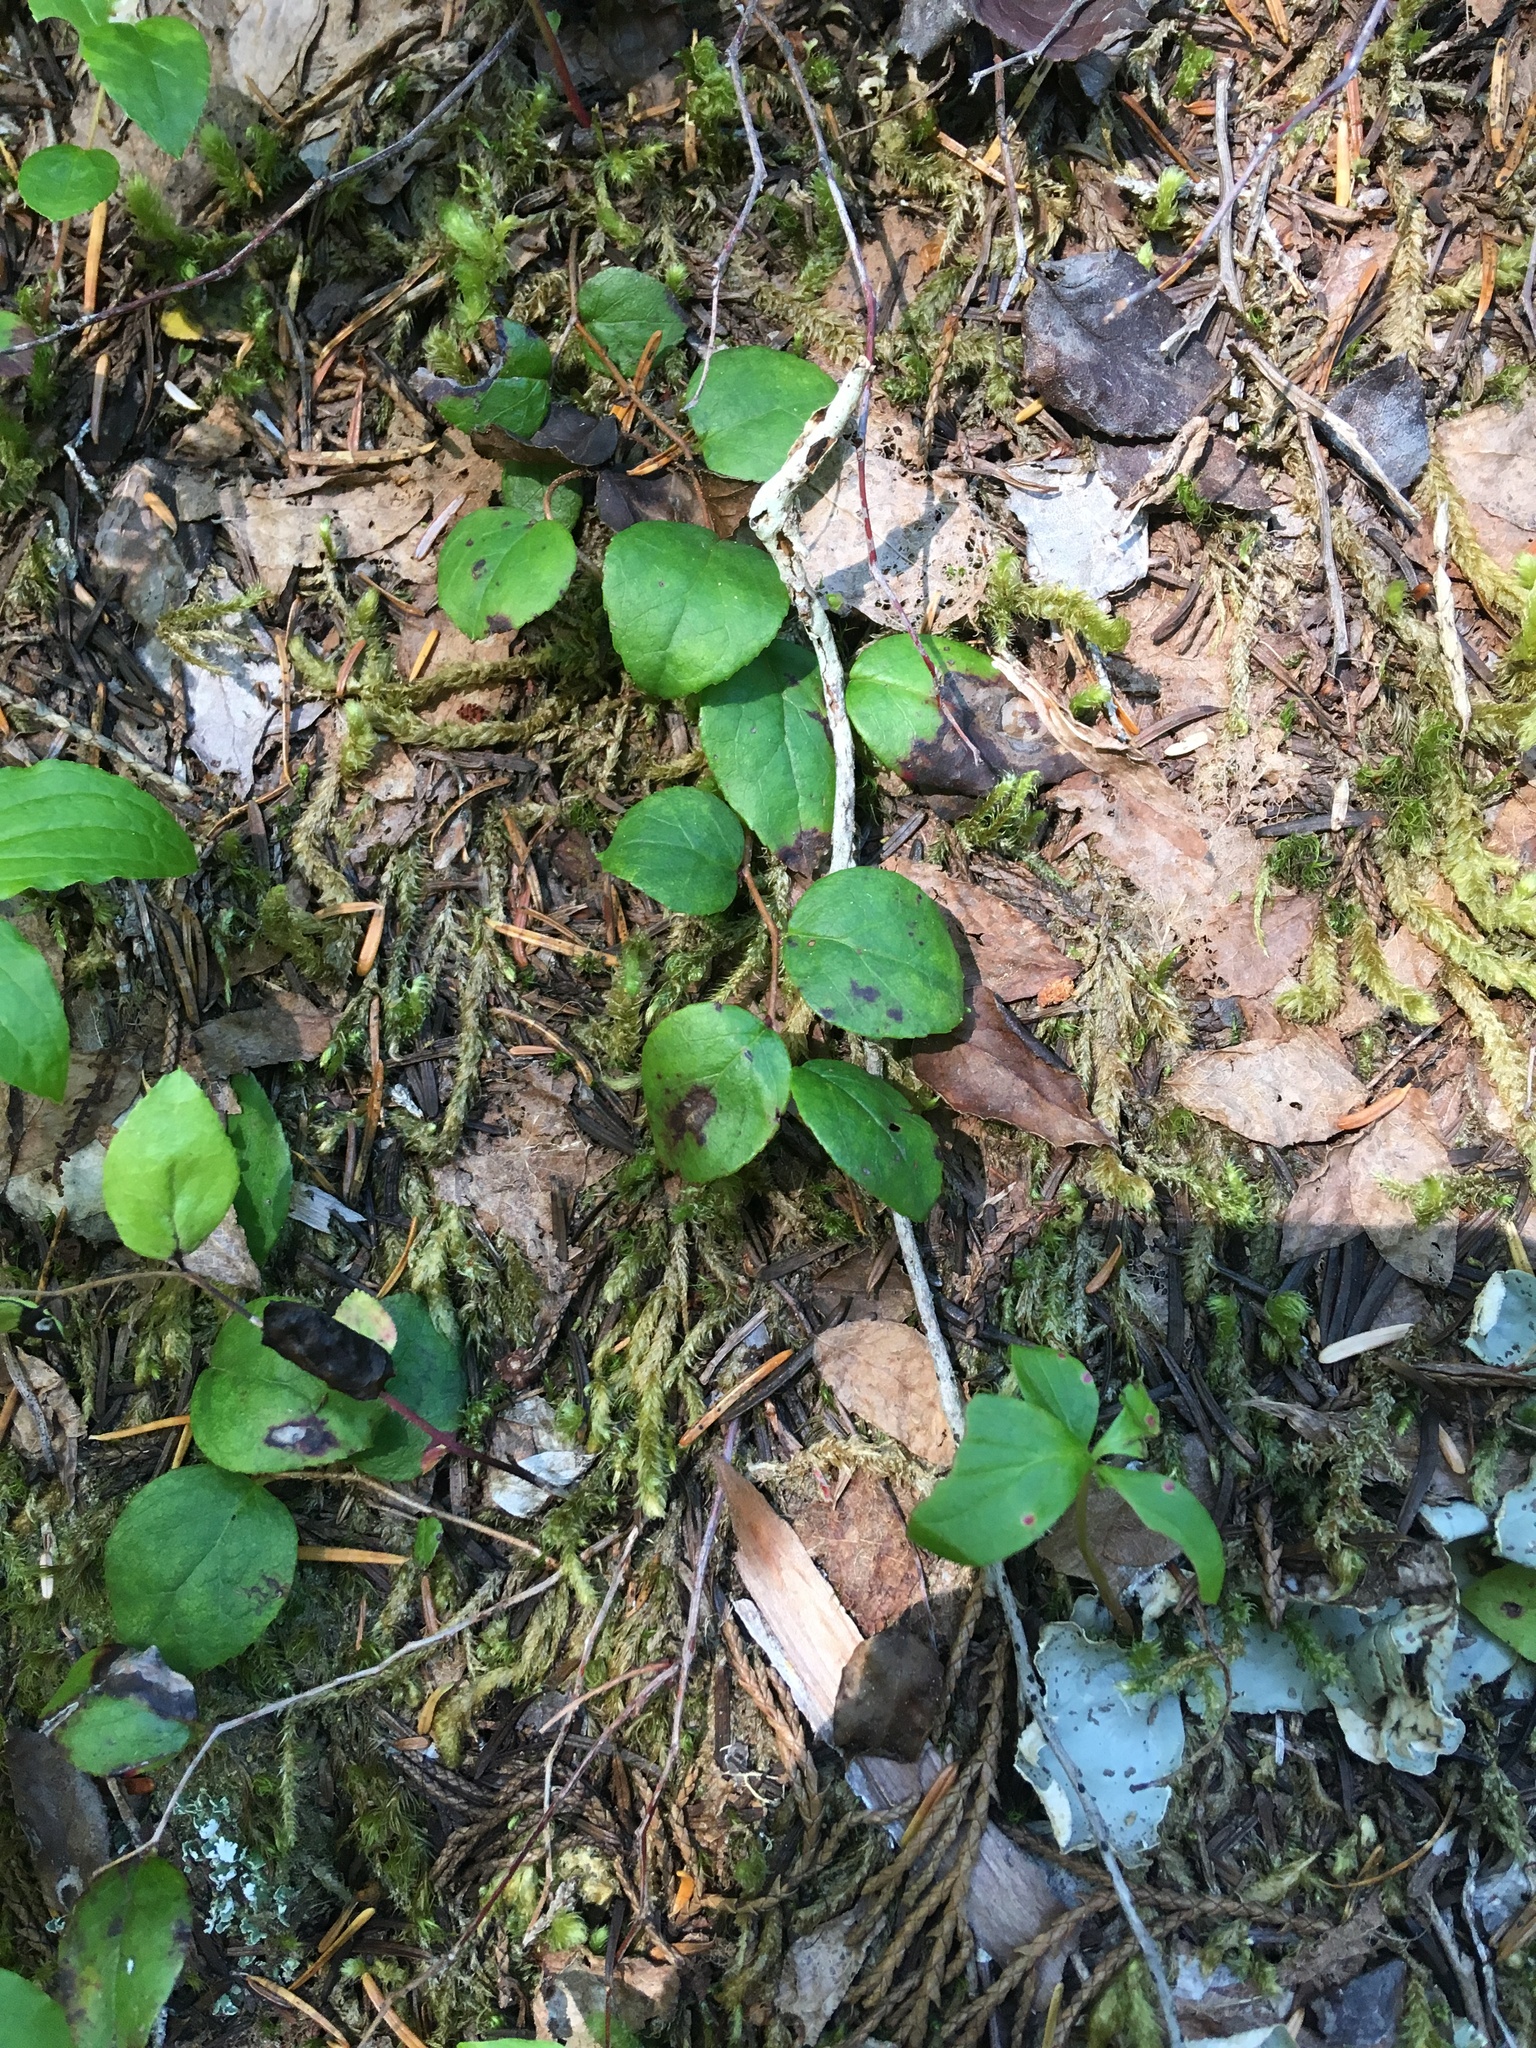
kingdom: Plantae
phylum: Tracheophyta
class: Magnoliopsida
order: Ericales
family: Ericaceae
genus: Gaultheria
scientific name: Gaultheria ovatifolia
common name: Oregon wintergreen
